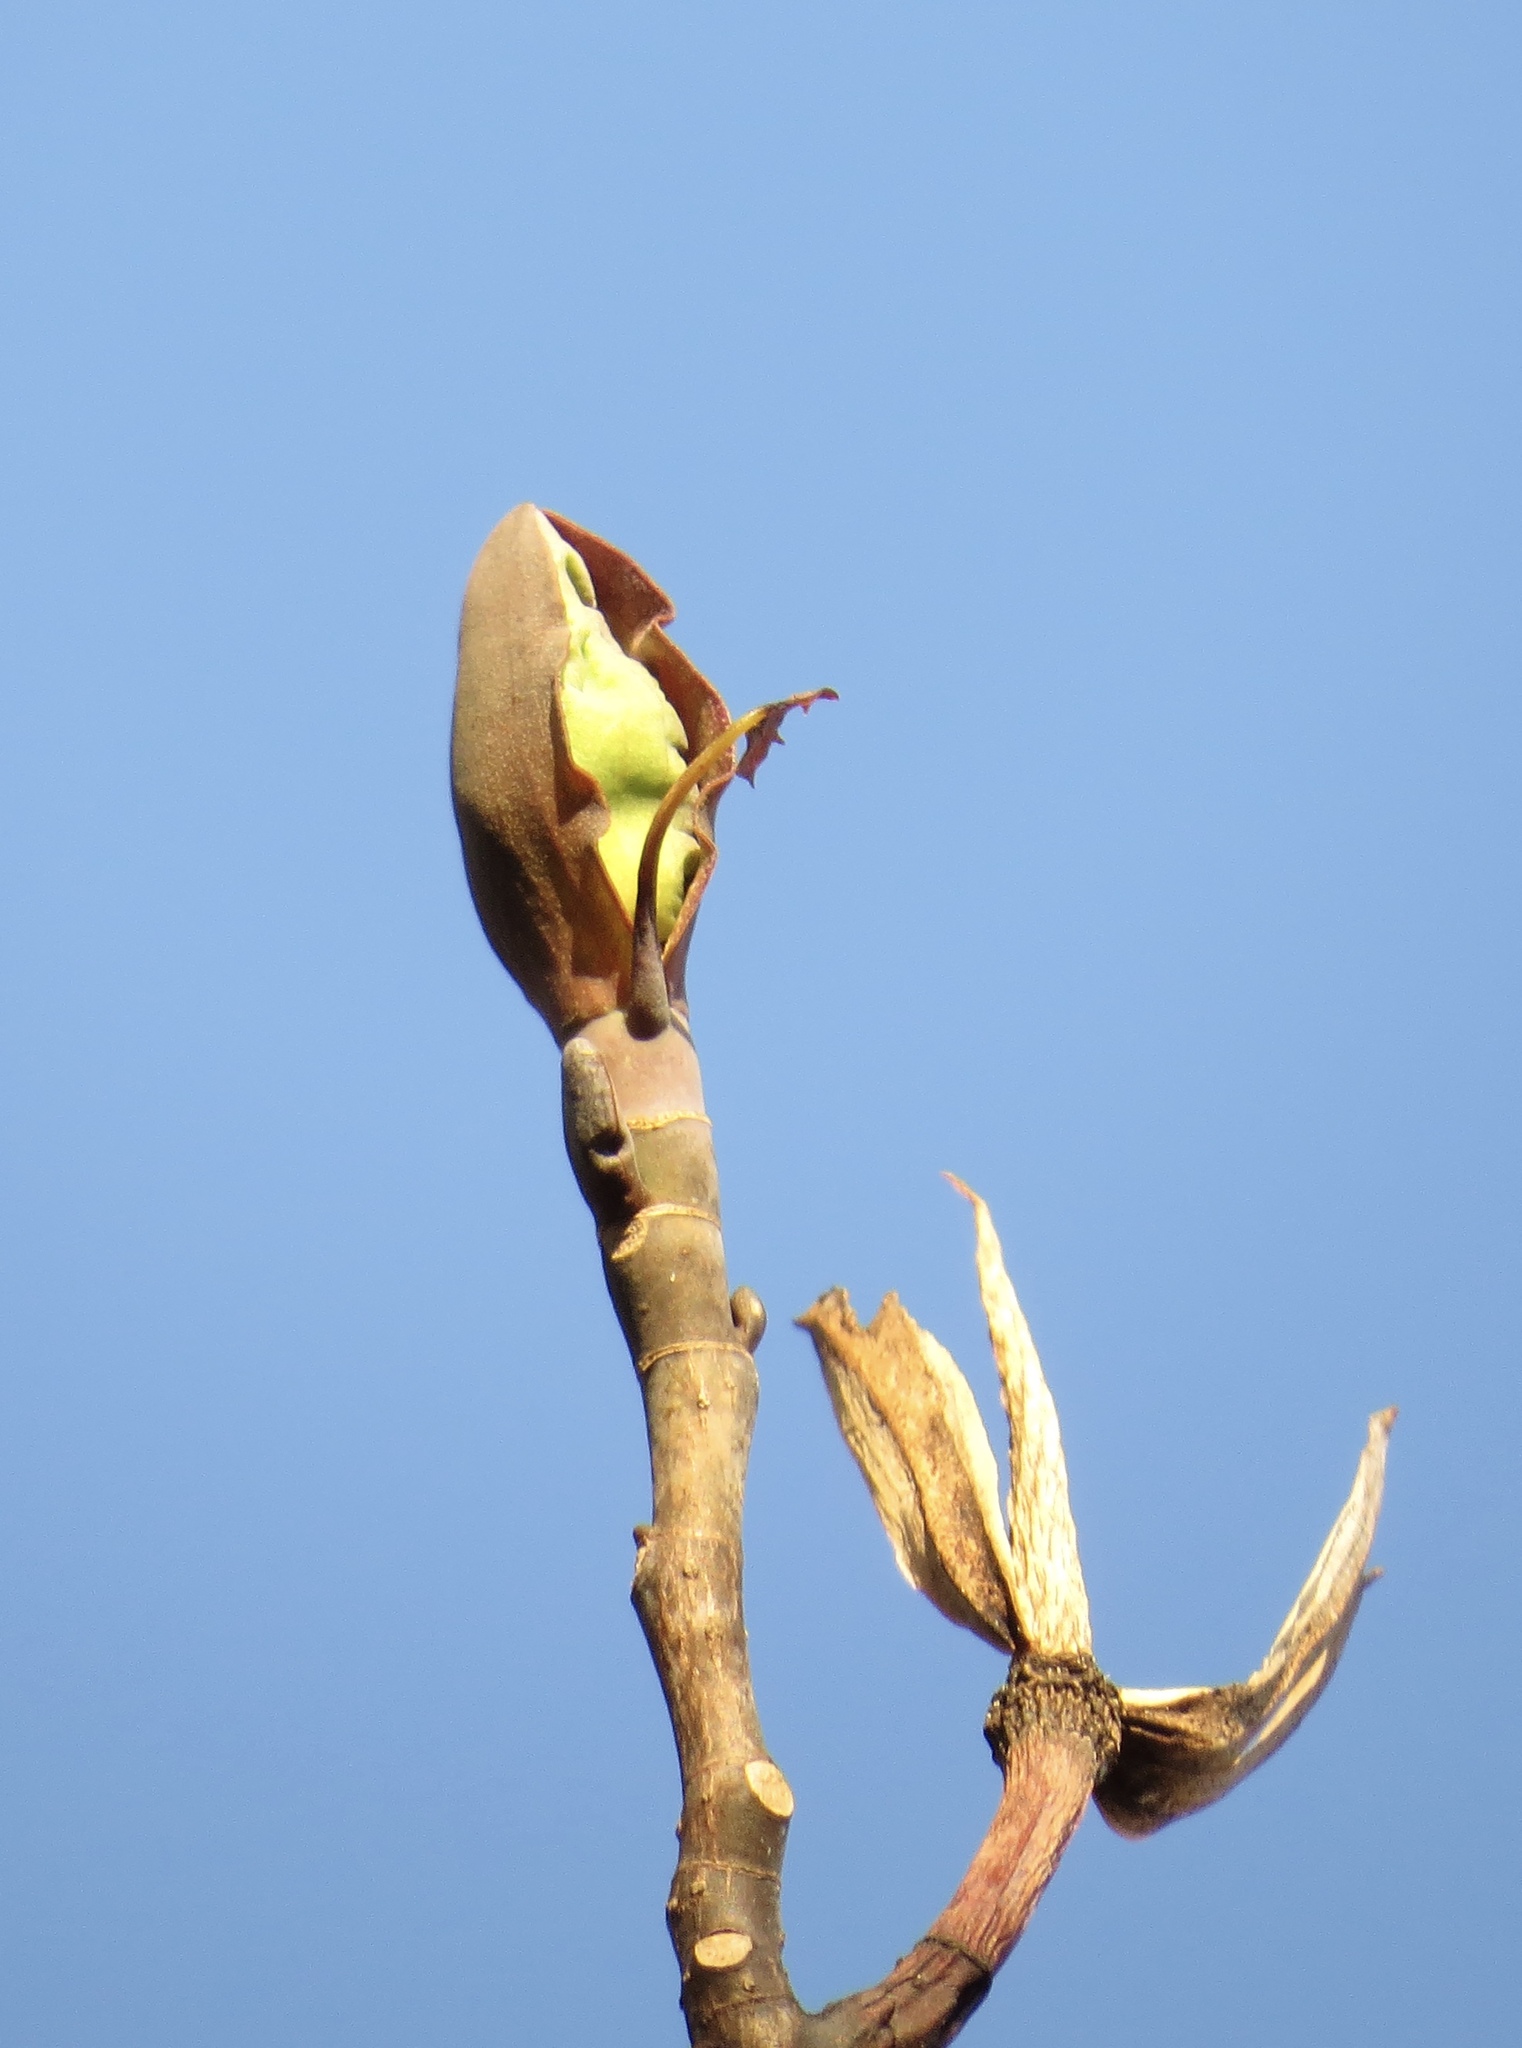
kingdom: Plantae
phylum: Tracheophyta
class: Magnoliopsida
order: Magnoliales
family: Magnoliaceae
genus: Liriodendron
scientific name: Liriodendron tulipifera
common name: Tulip tree
